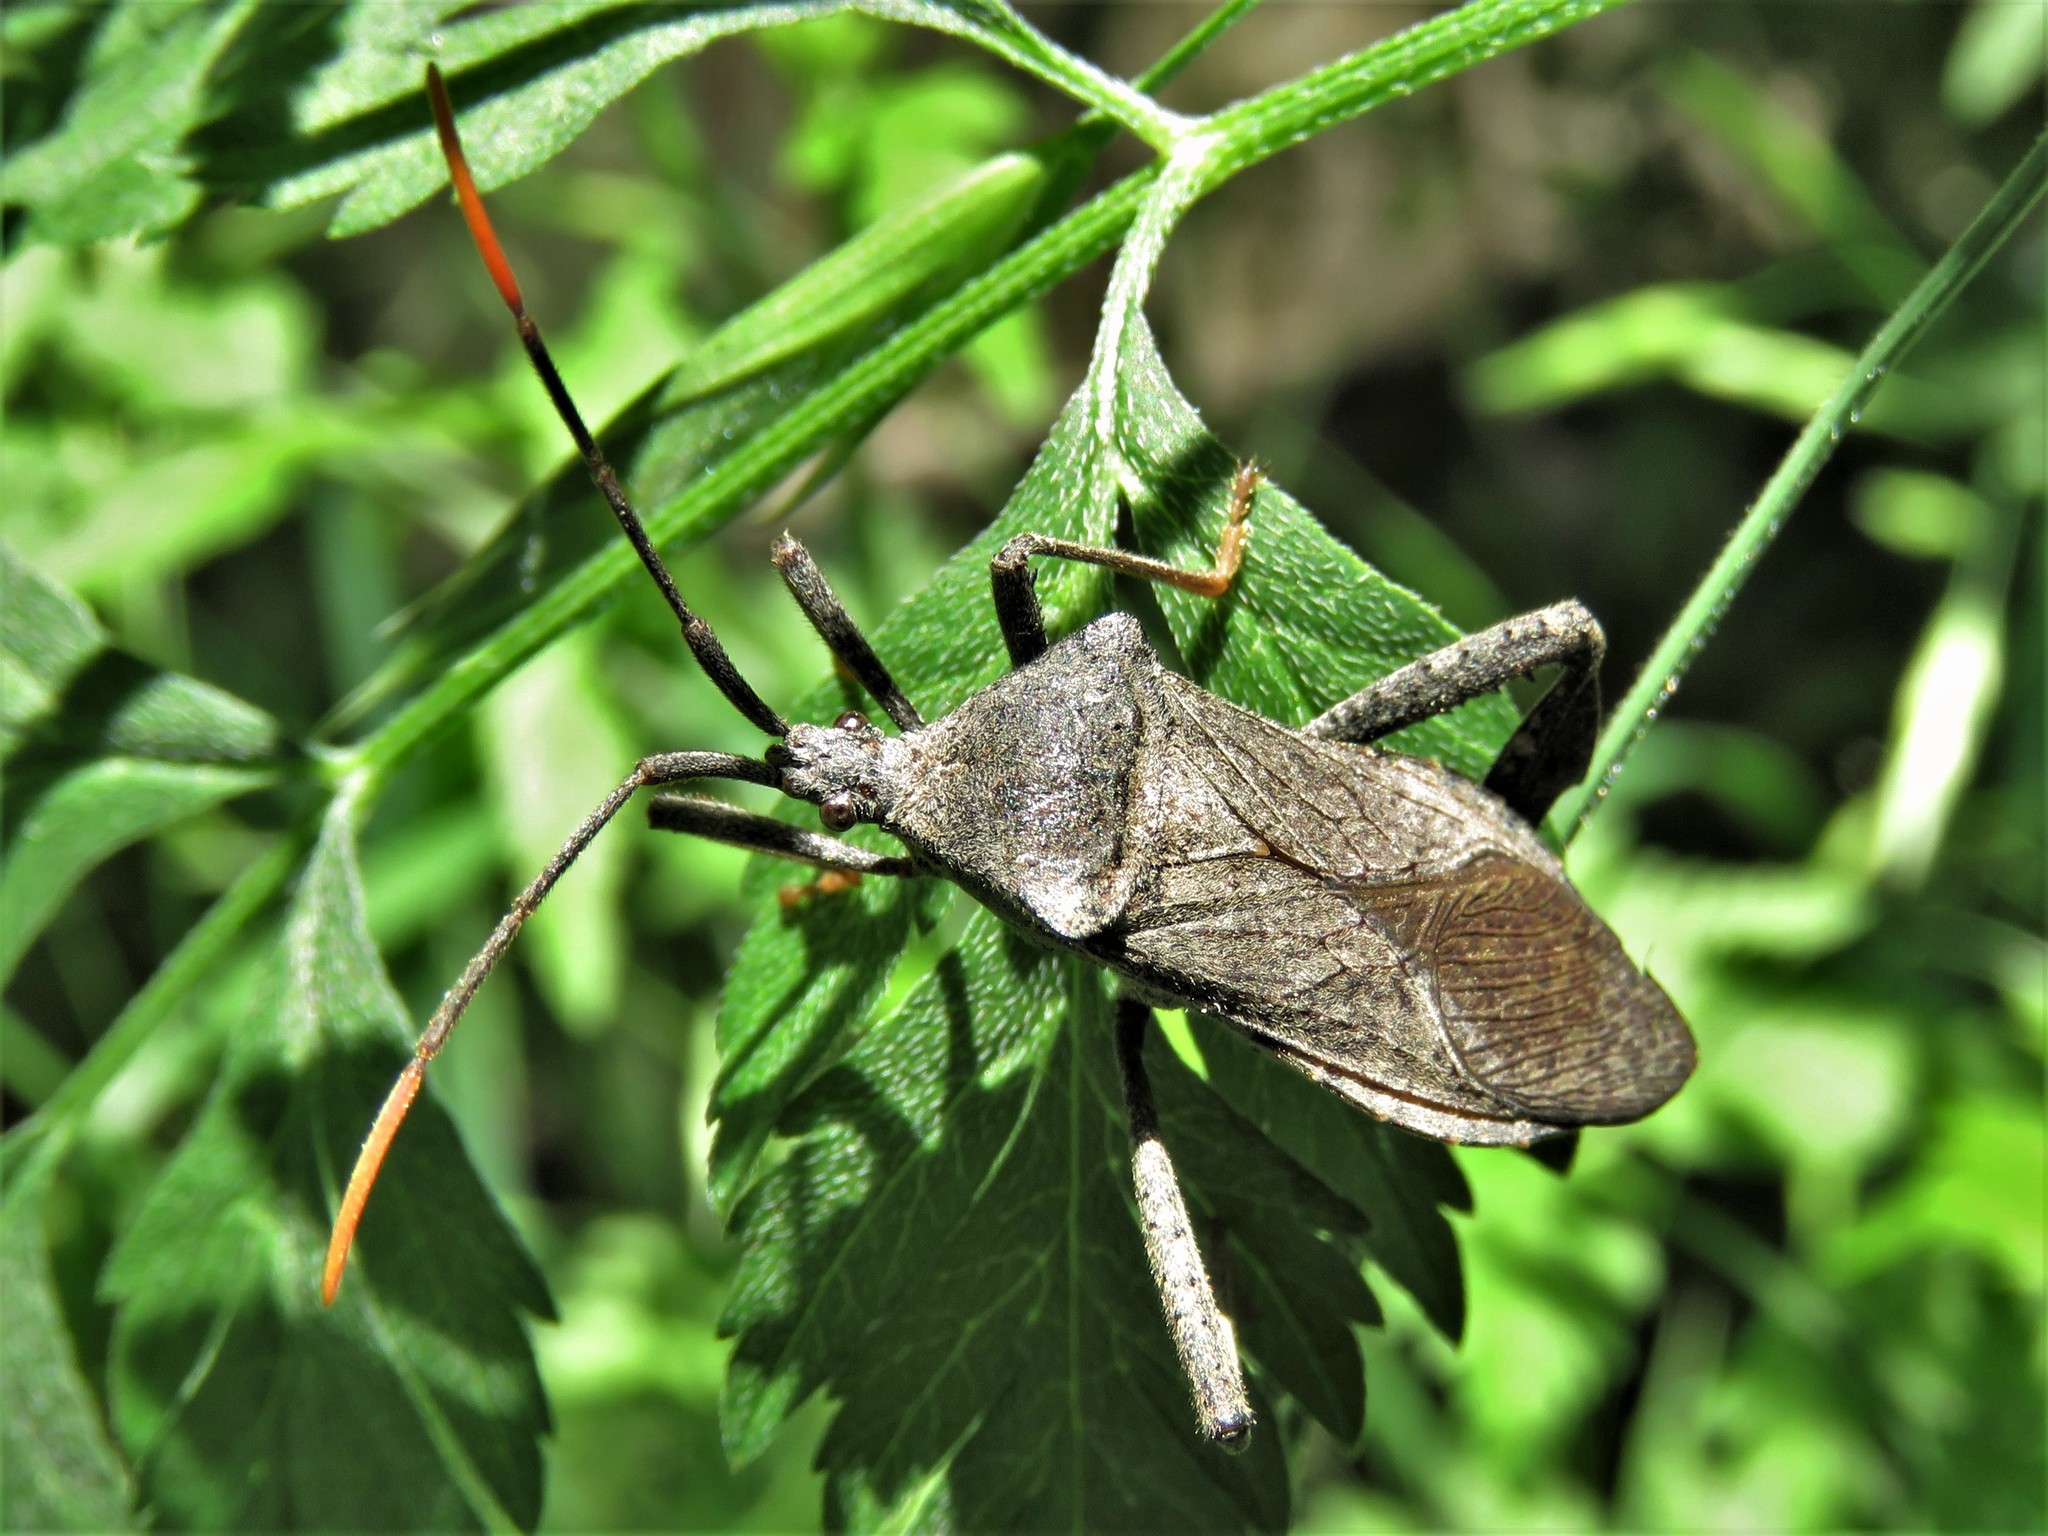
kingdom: Animalia
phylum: Arthropoda
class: Insecta
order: Hemiptera
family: Coreidae
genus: Acanthocephala
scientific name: Acanthocephala terminalis
